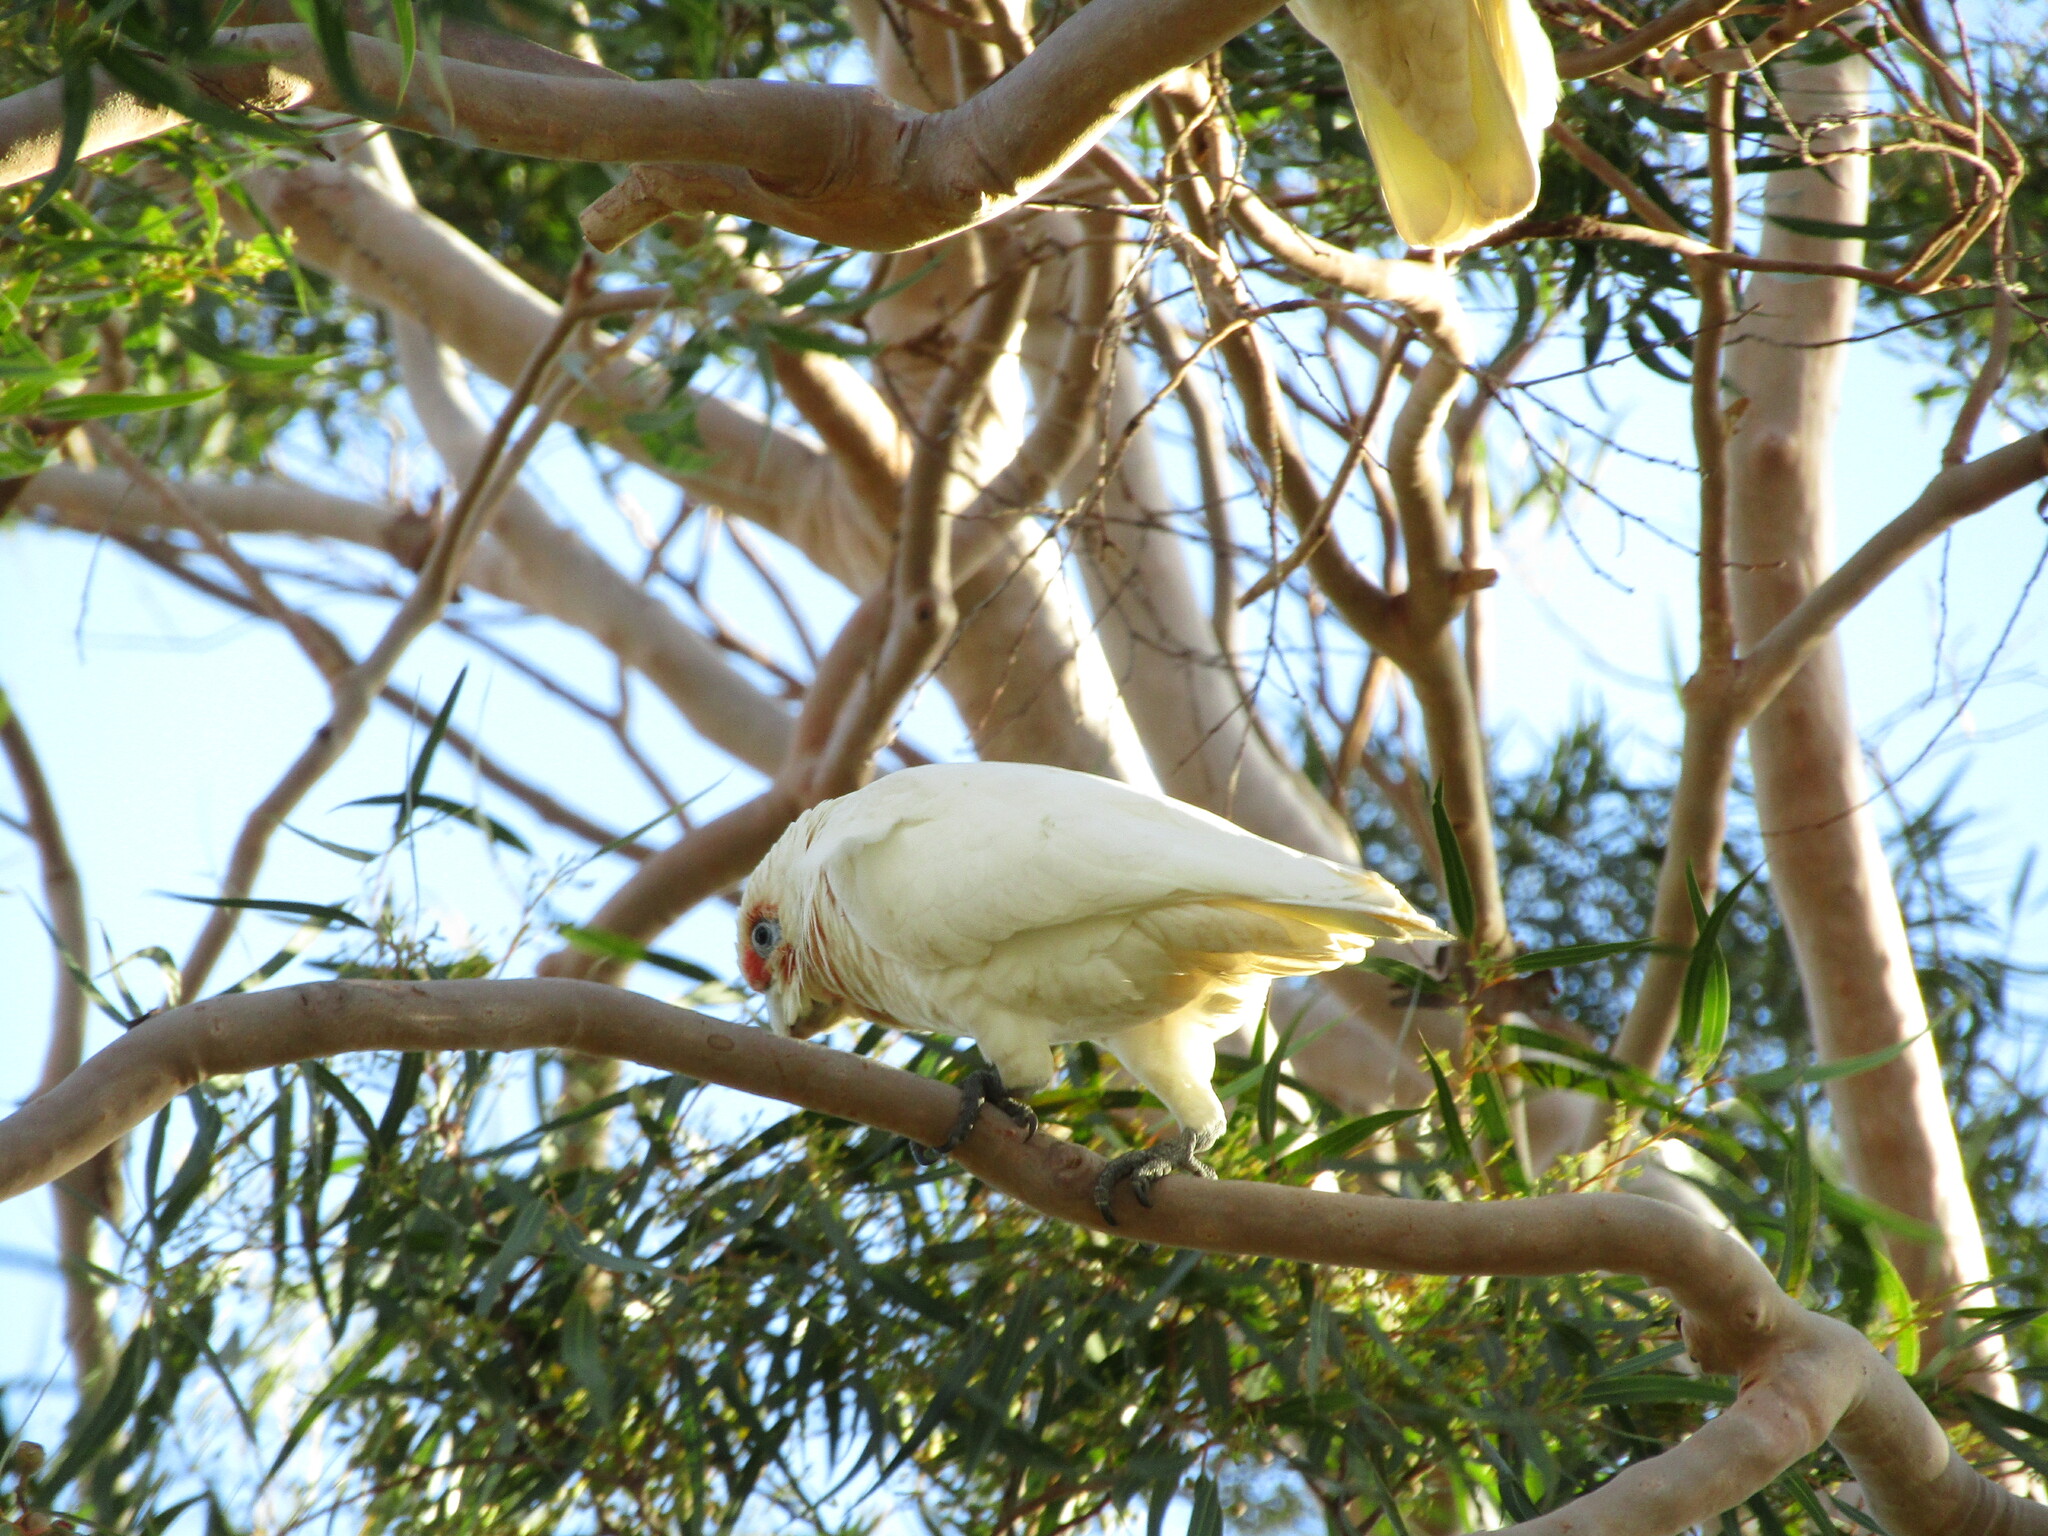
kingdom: Animalia
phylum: Chordata
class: Aves
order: Psittaciformes
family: Psittacidae
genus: Cacatua
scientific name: Cacatua tenuirostris
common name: Long-billed corella
